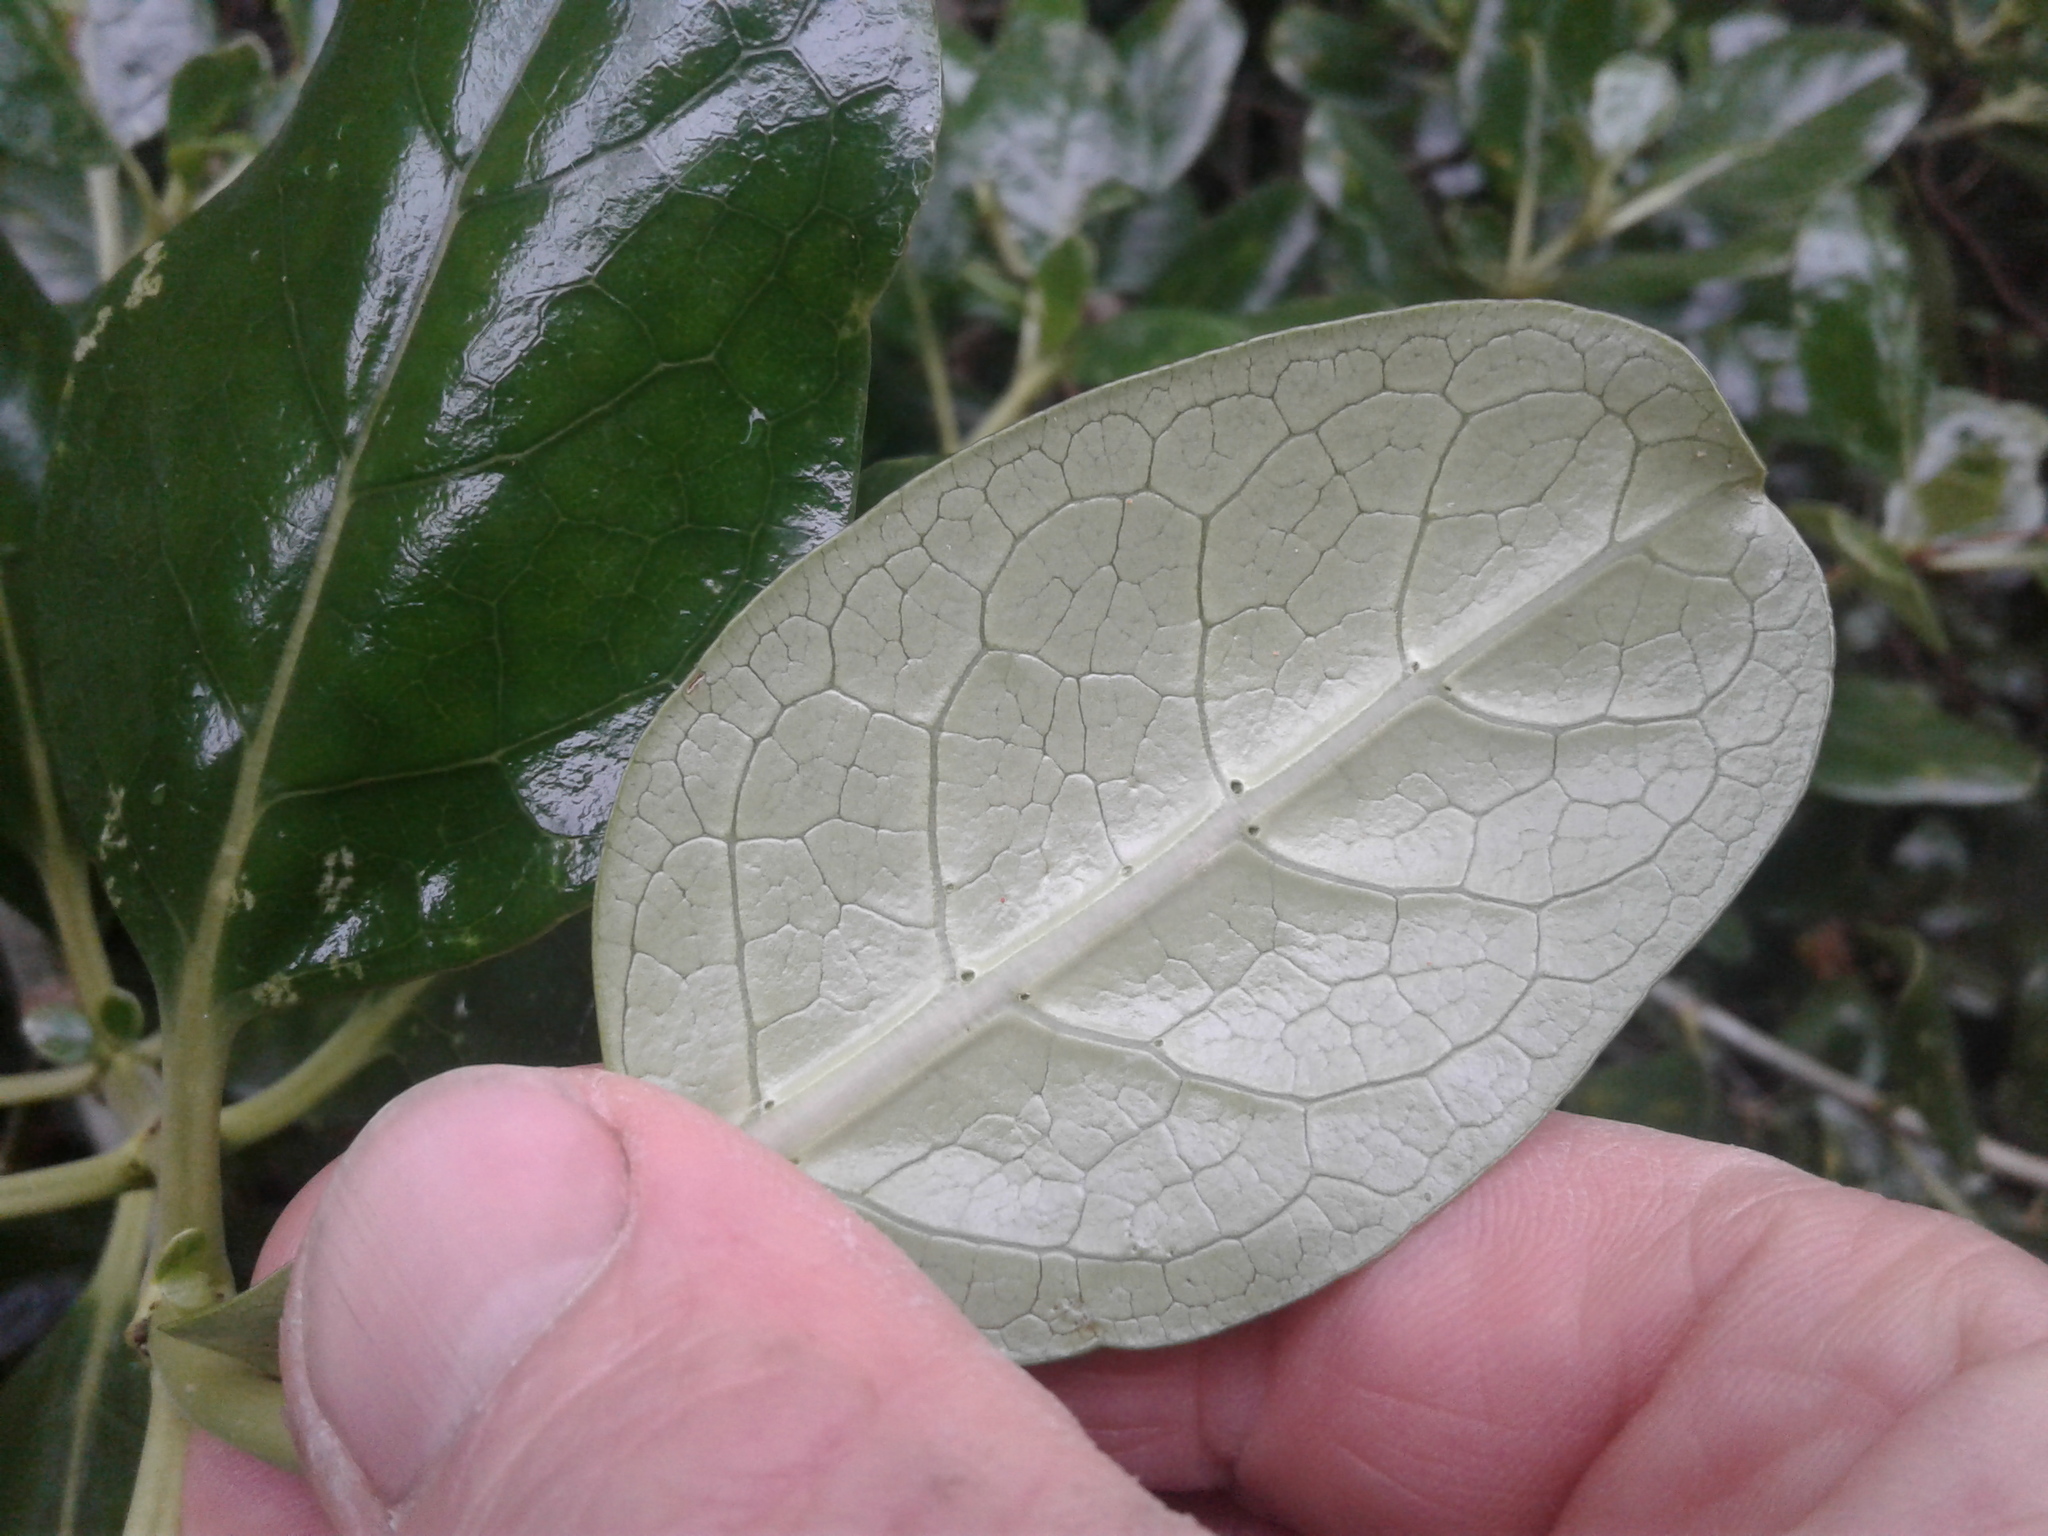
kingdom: Plantae
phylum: Tracheophyta
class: Magnoliopsida
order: Gentianales
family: Rubiaceae
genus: Coprosma
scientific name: Coprosma repens
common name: Tree bedstraw
